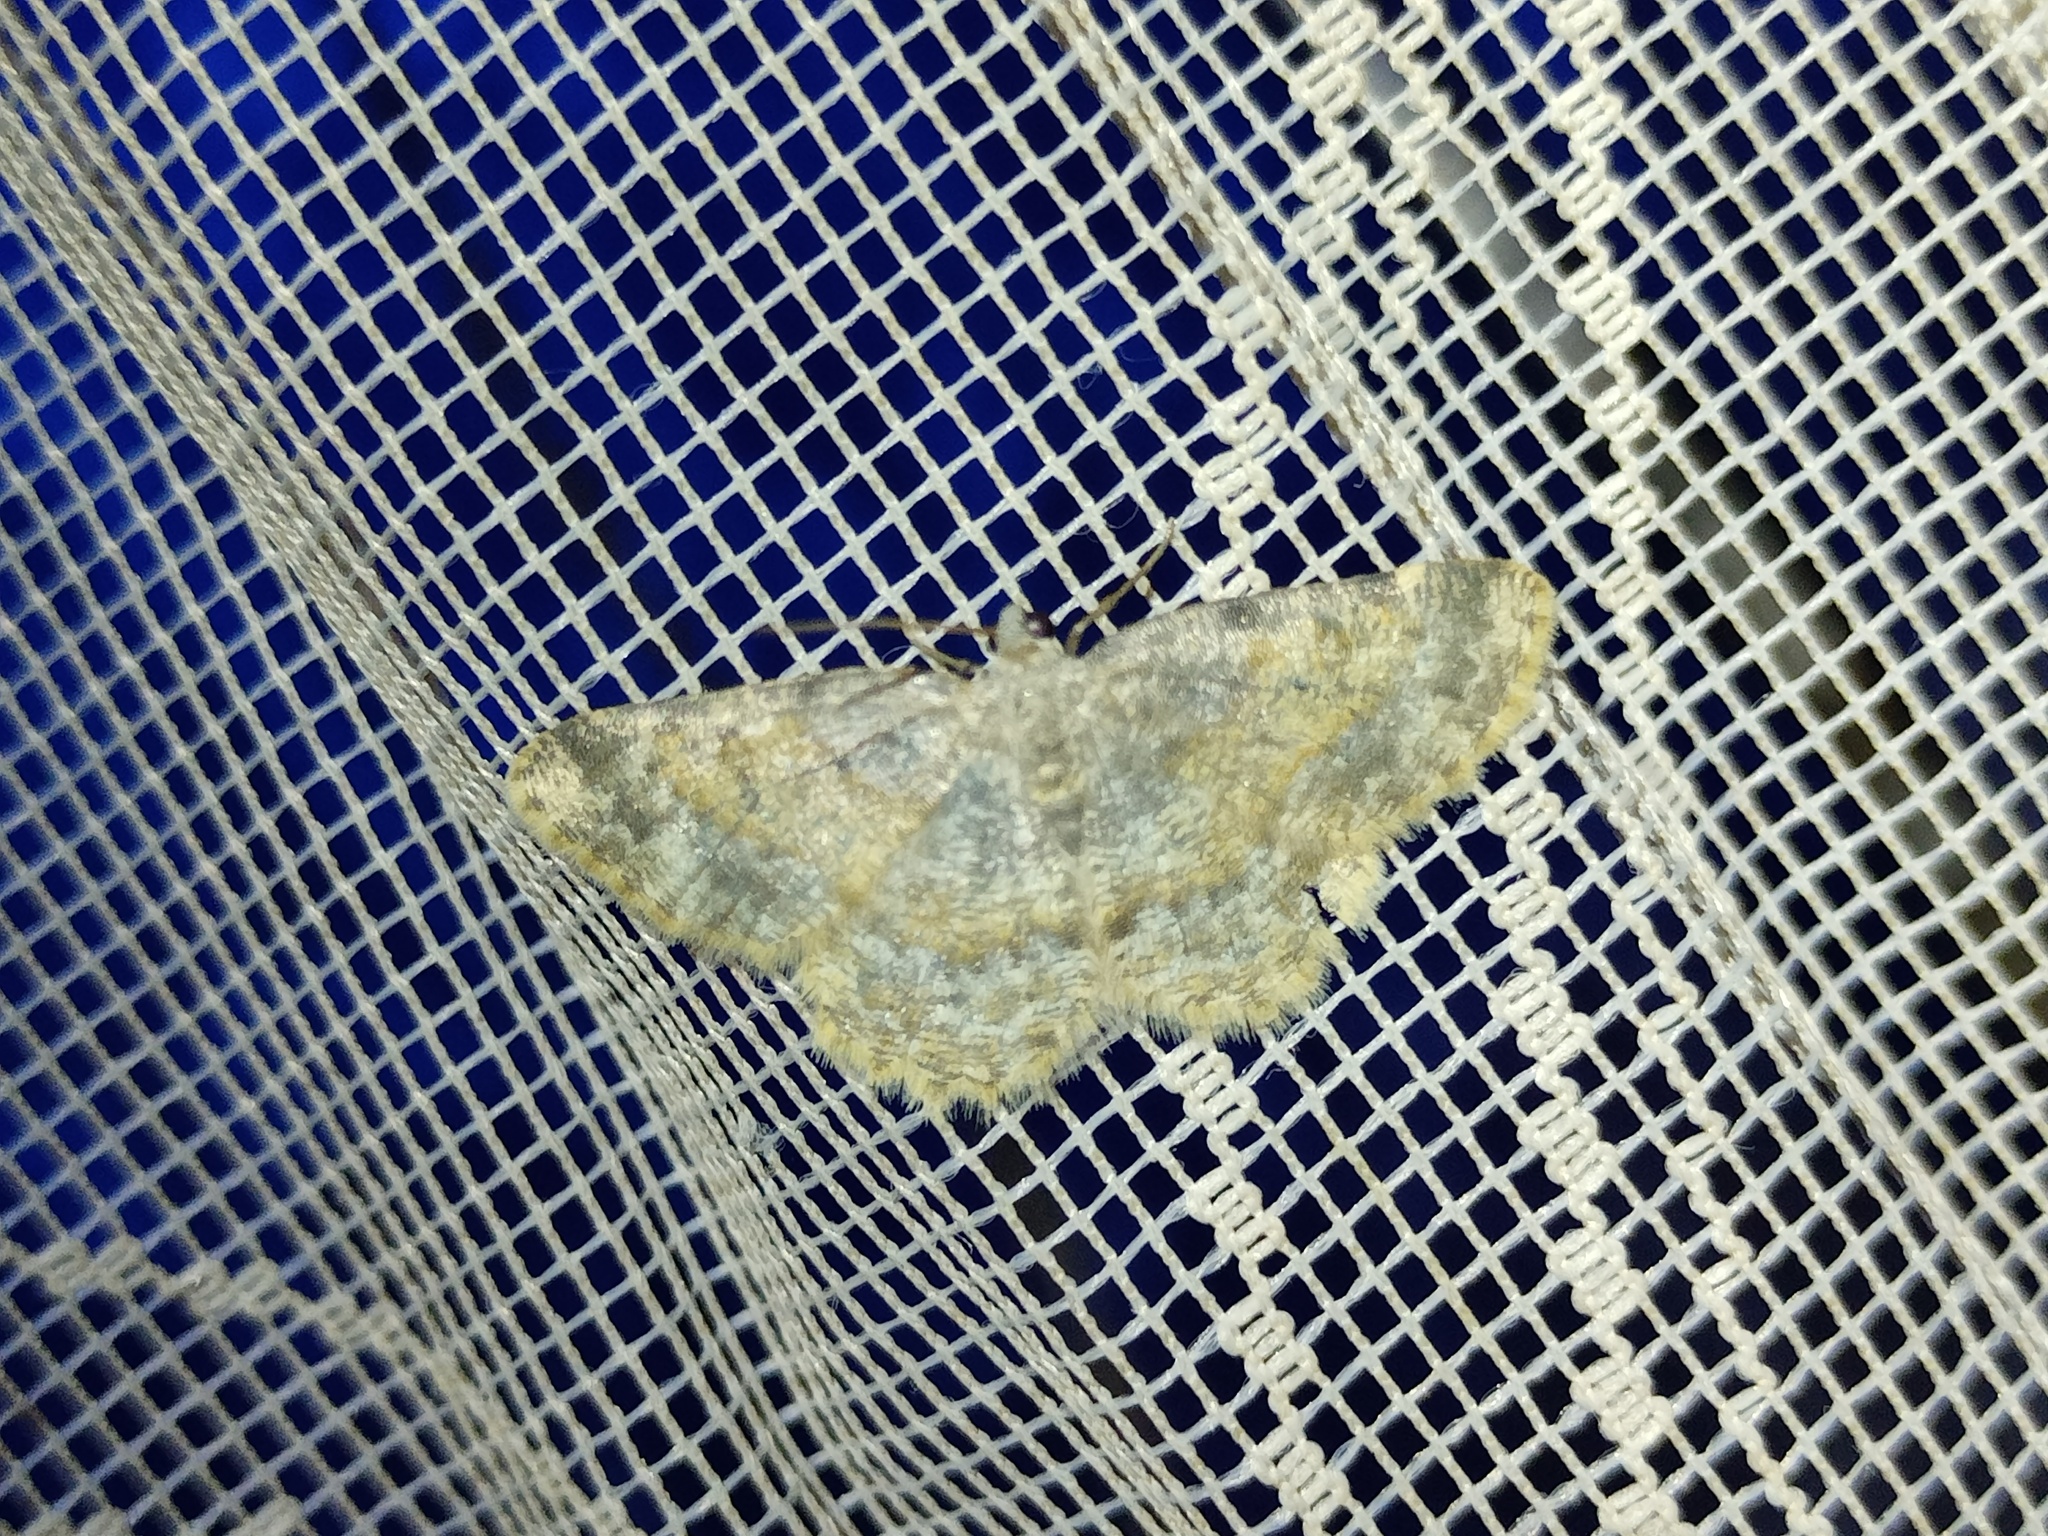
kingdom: Animalia
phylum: Arthropoda
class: Insecta
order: Lepidoptera
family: Geometridae
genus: Charissa
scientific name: Charissa variegata
